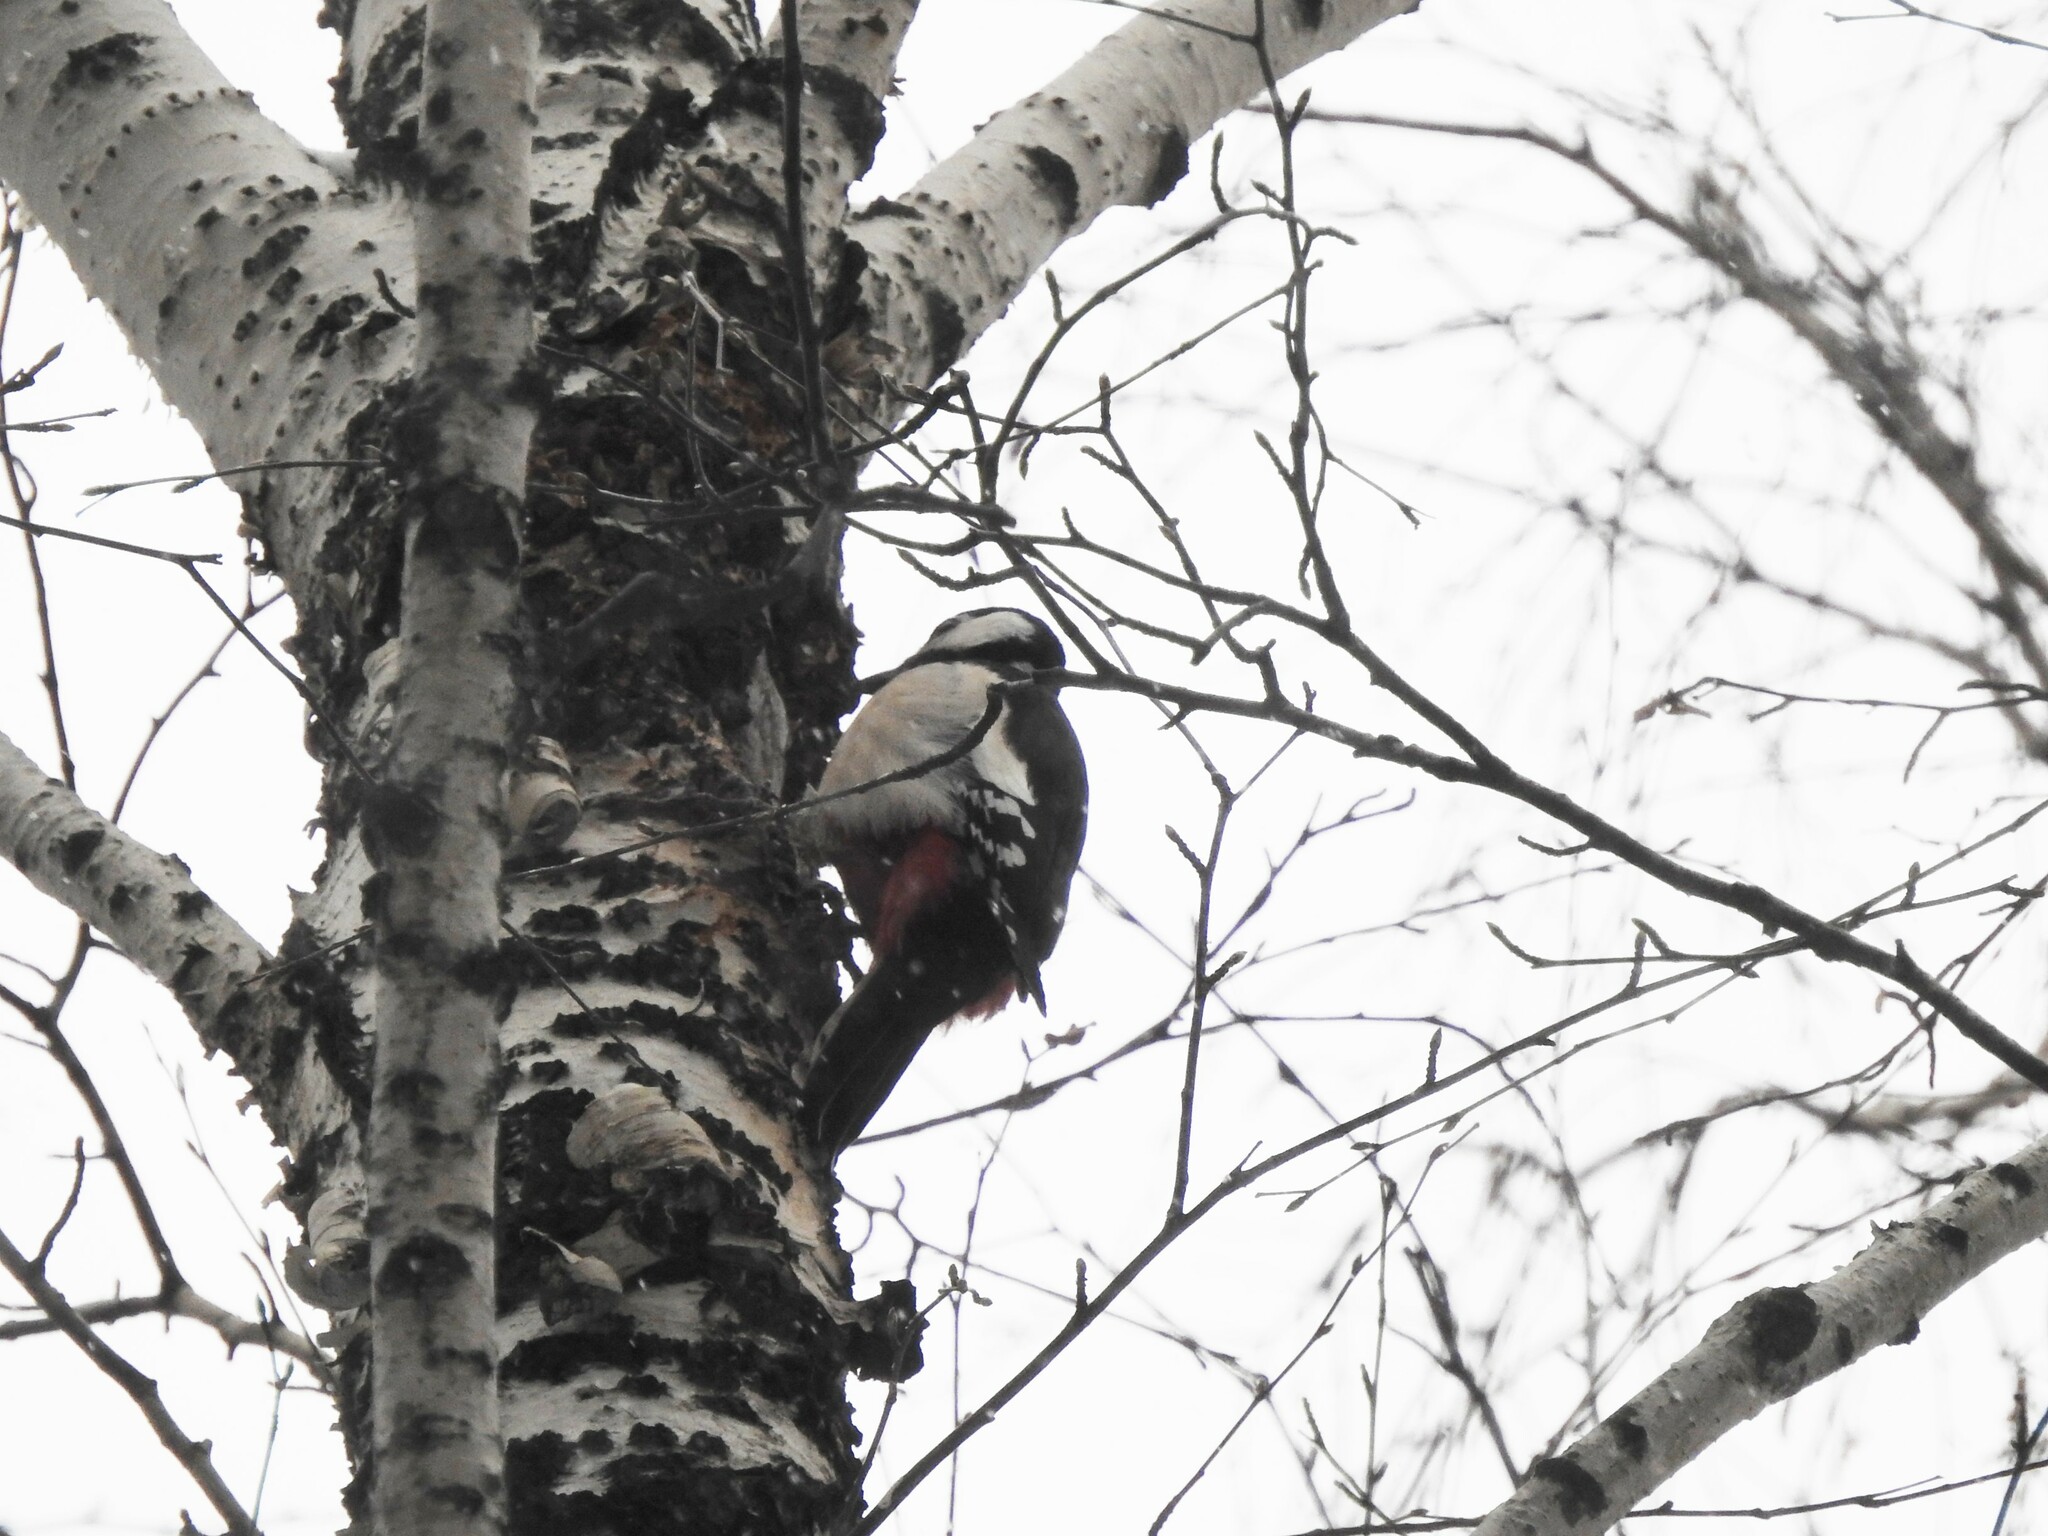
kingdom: Animalia
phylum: Chordata
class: Aves
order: Piciformes
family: Picidae
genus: Dendrocopos
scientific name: Dendrocopos major
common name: Great spotted woodpecker
